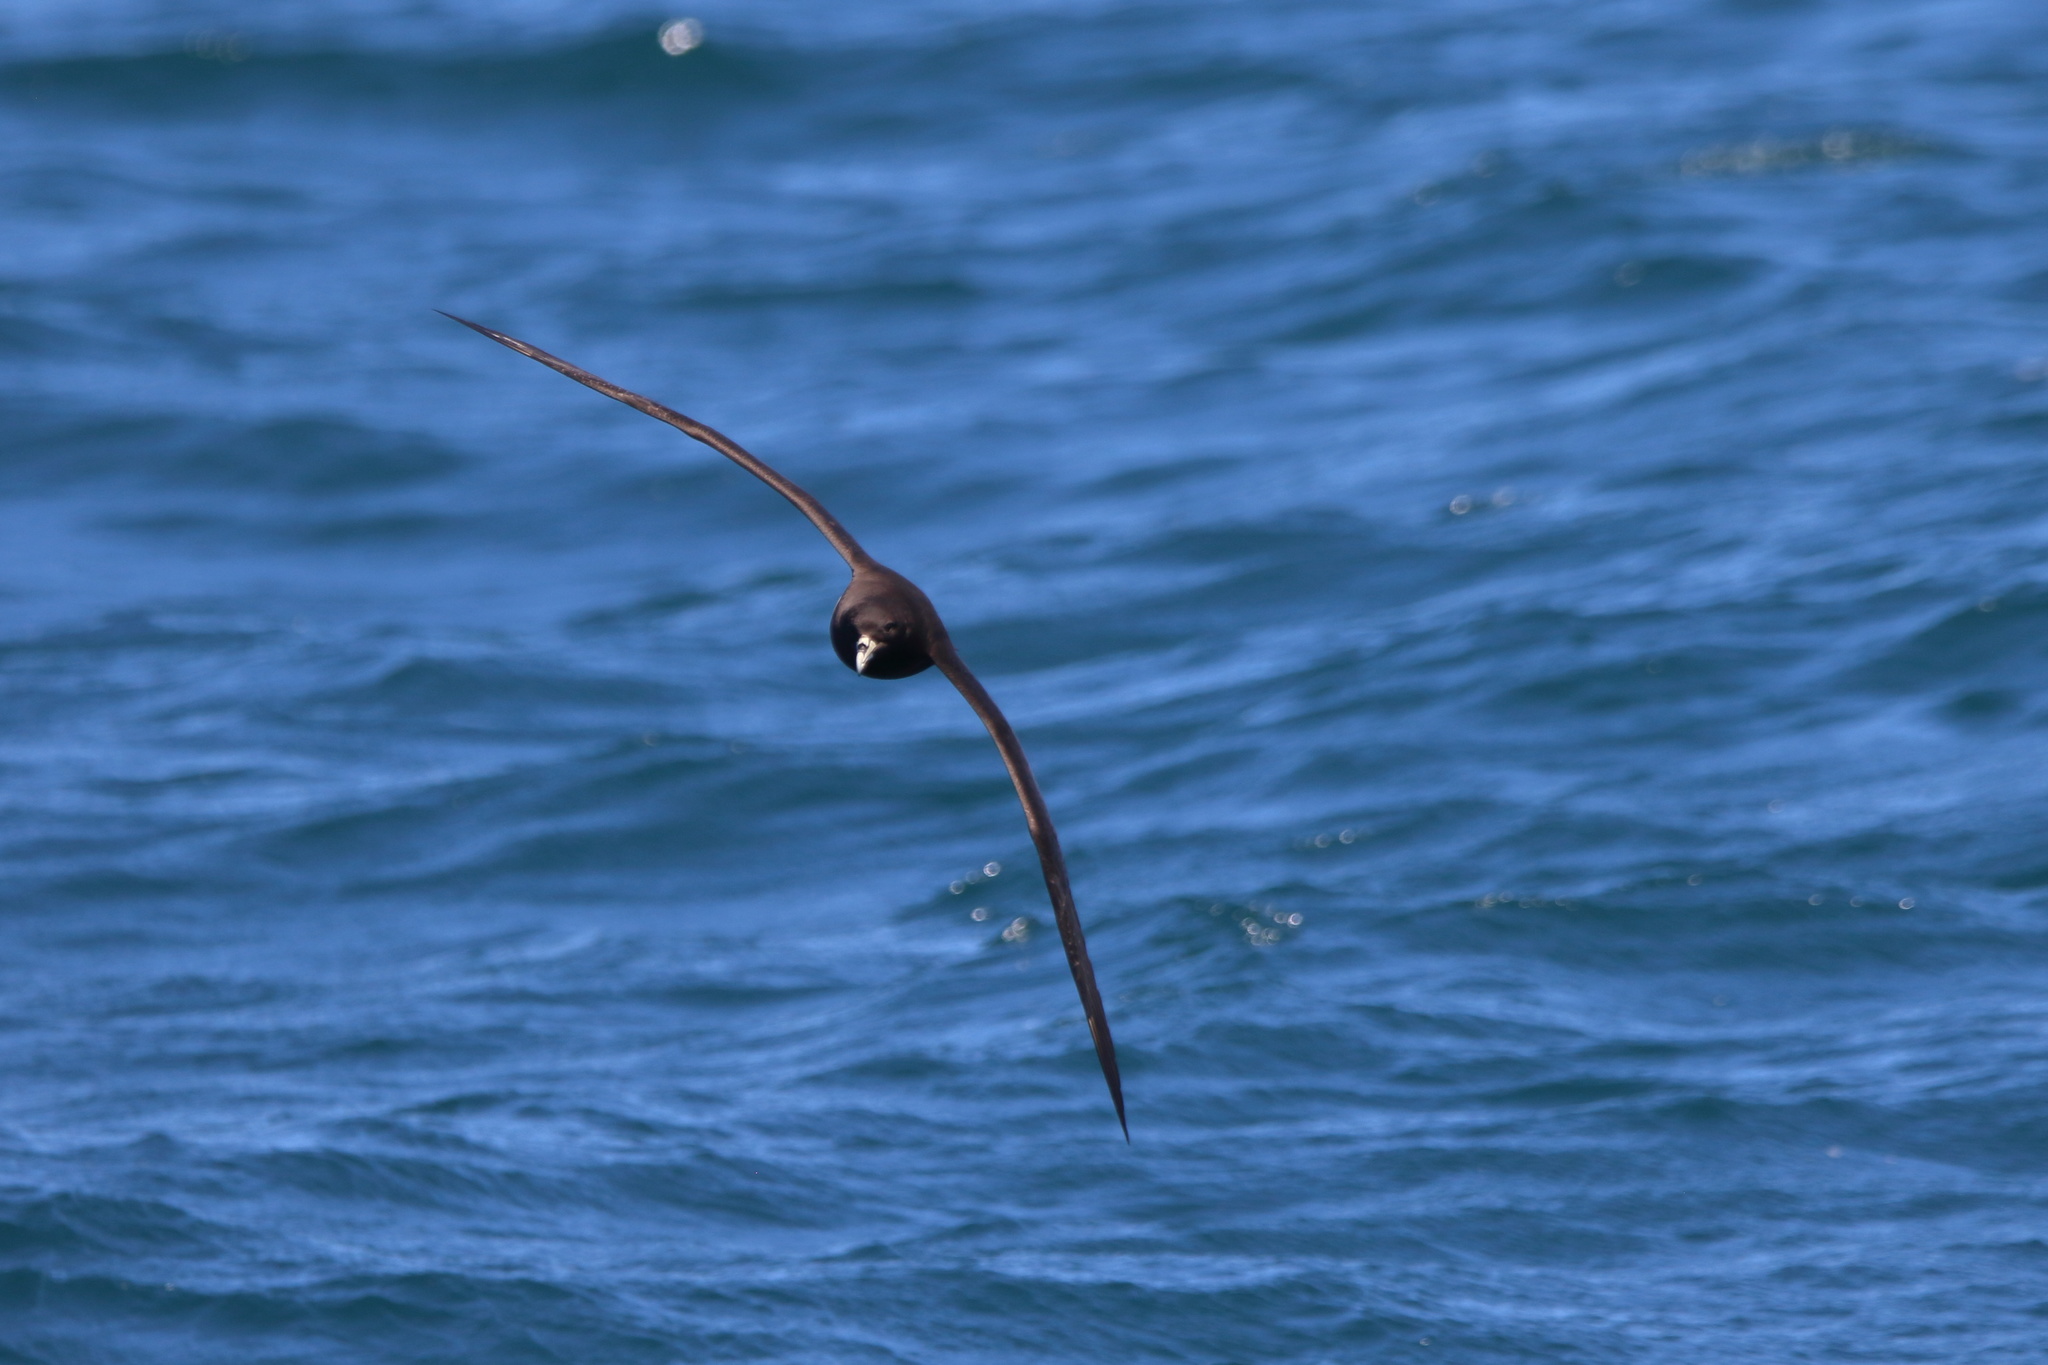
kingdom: Animalia
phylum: Chordata
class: Aves
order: Procellariiformes
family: Procellariidae
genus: Procellaria
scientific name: Procellaria aequinoctialis
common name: White-chinned petrel
